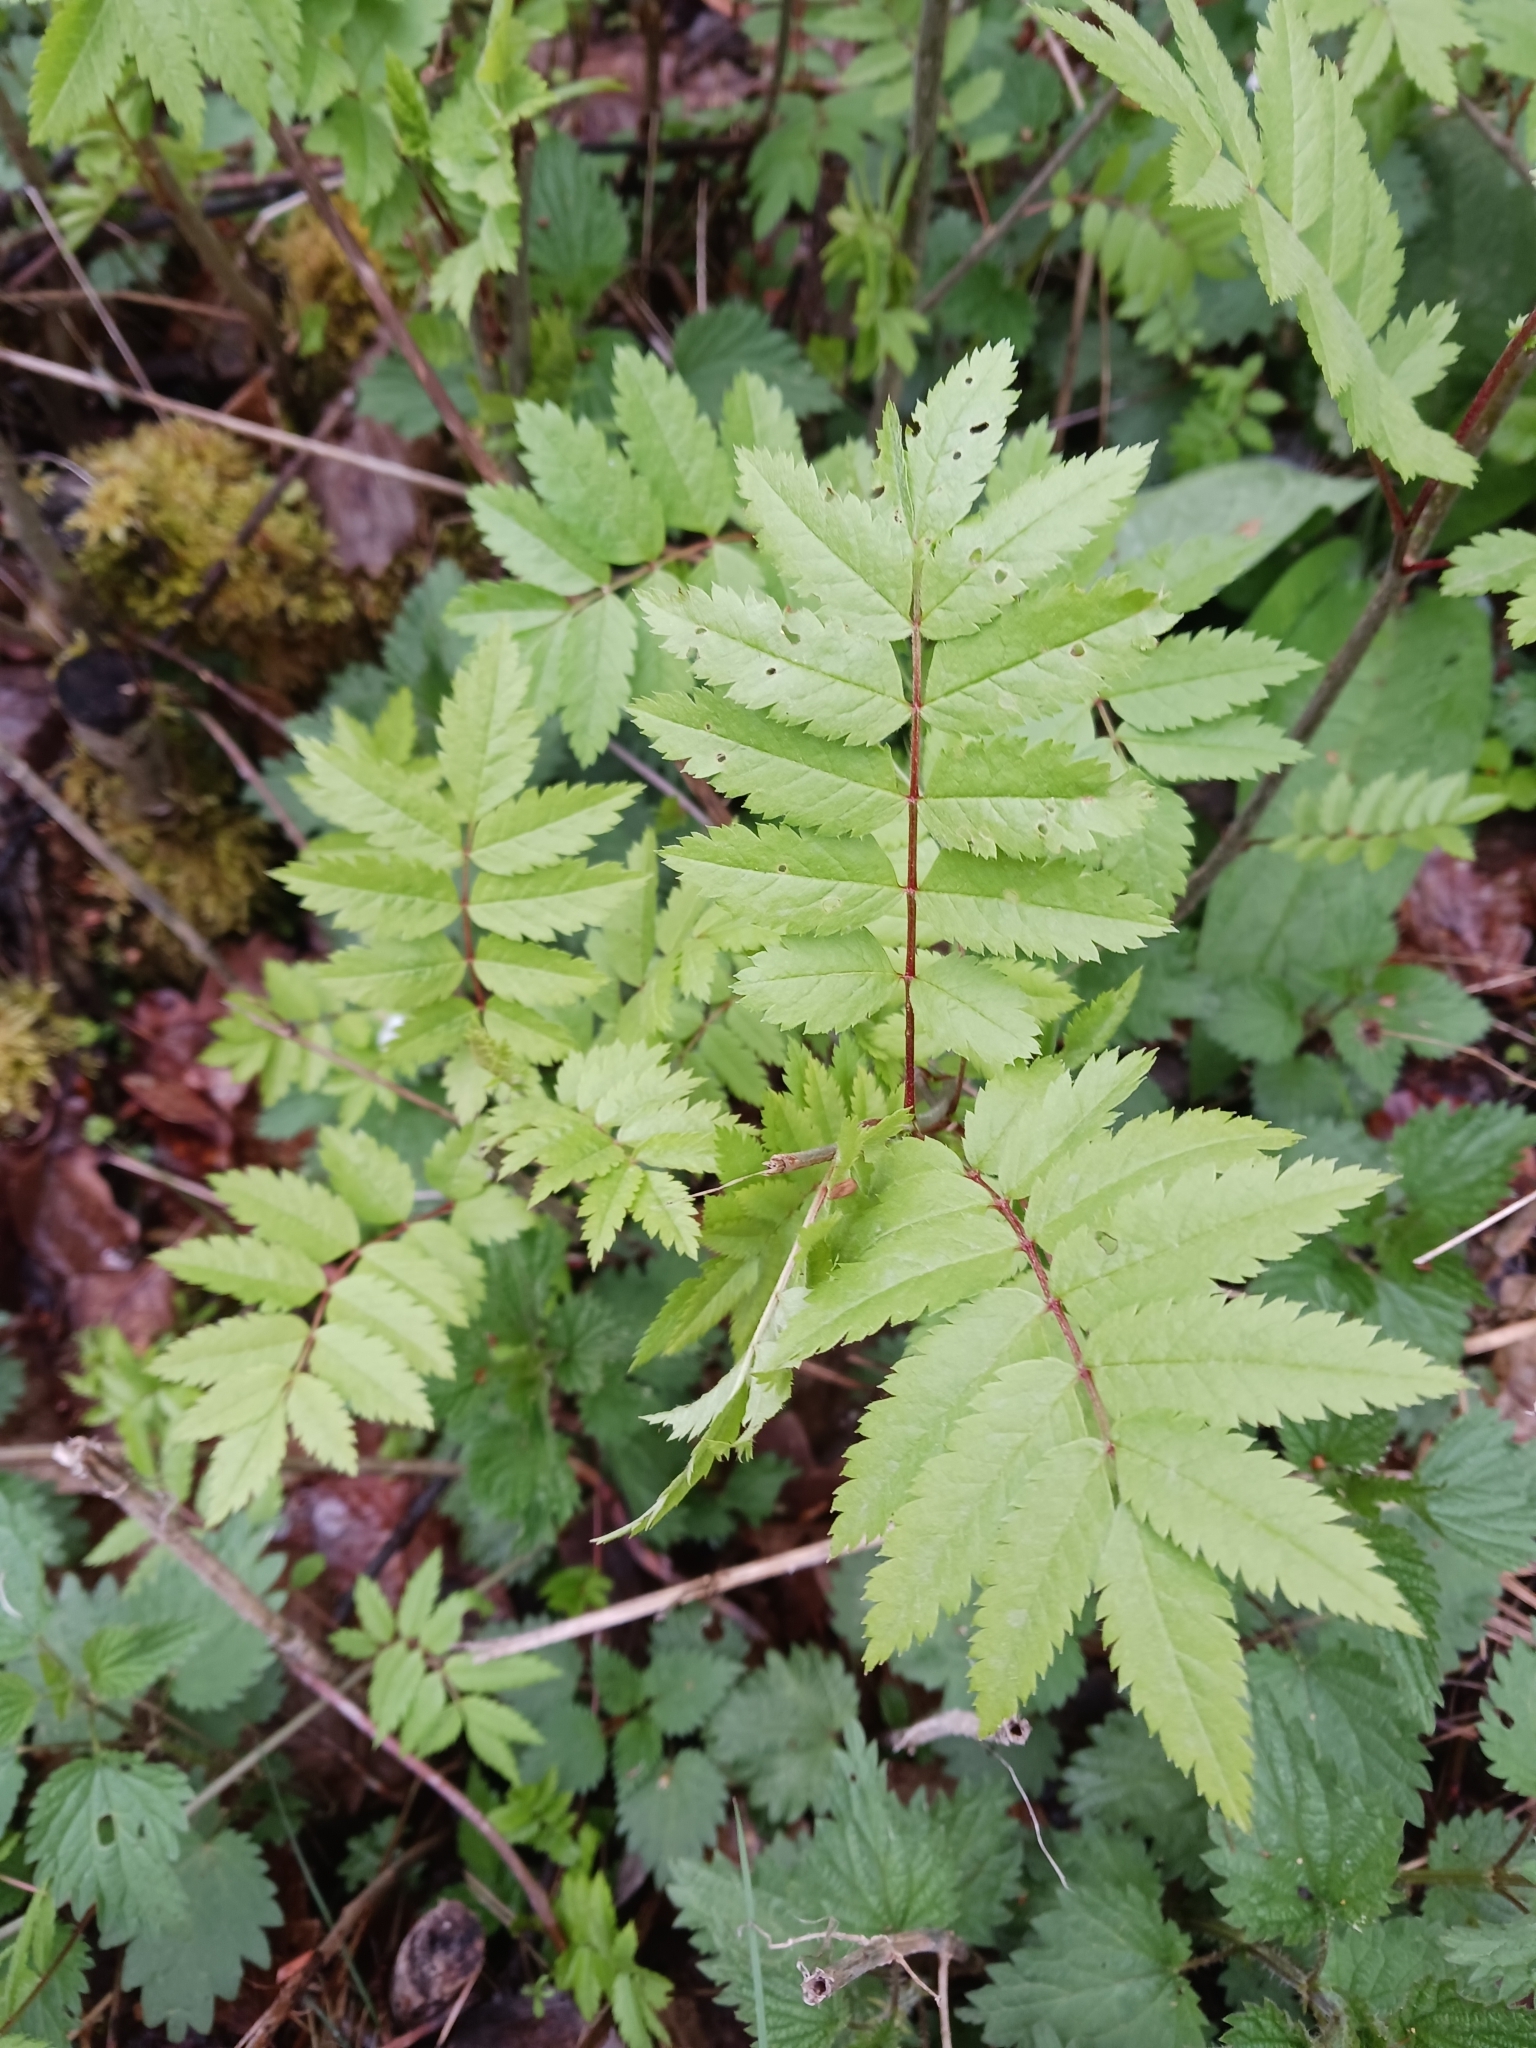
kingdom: Plantae
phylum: Tracheophyta
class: Magnoliopsida
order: Rosales
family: Rosaceae
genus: Sorbus
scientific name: Sorbus aucuparia
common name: Rowan
